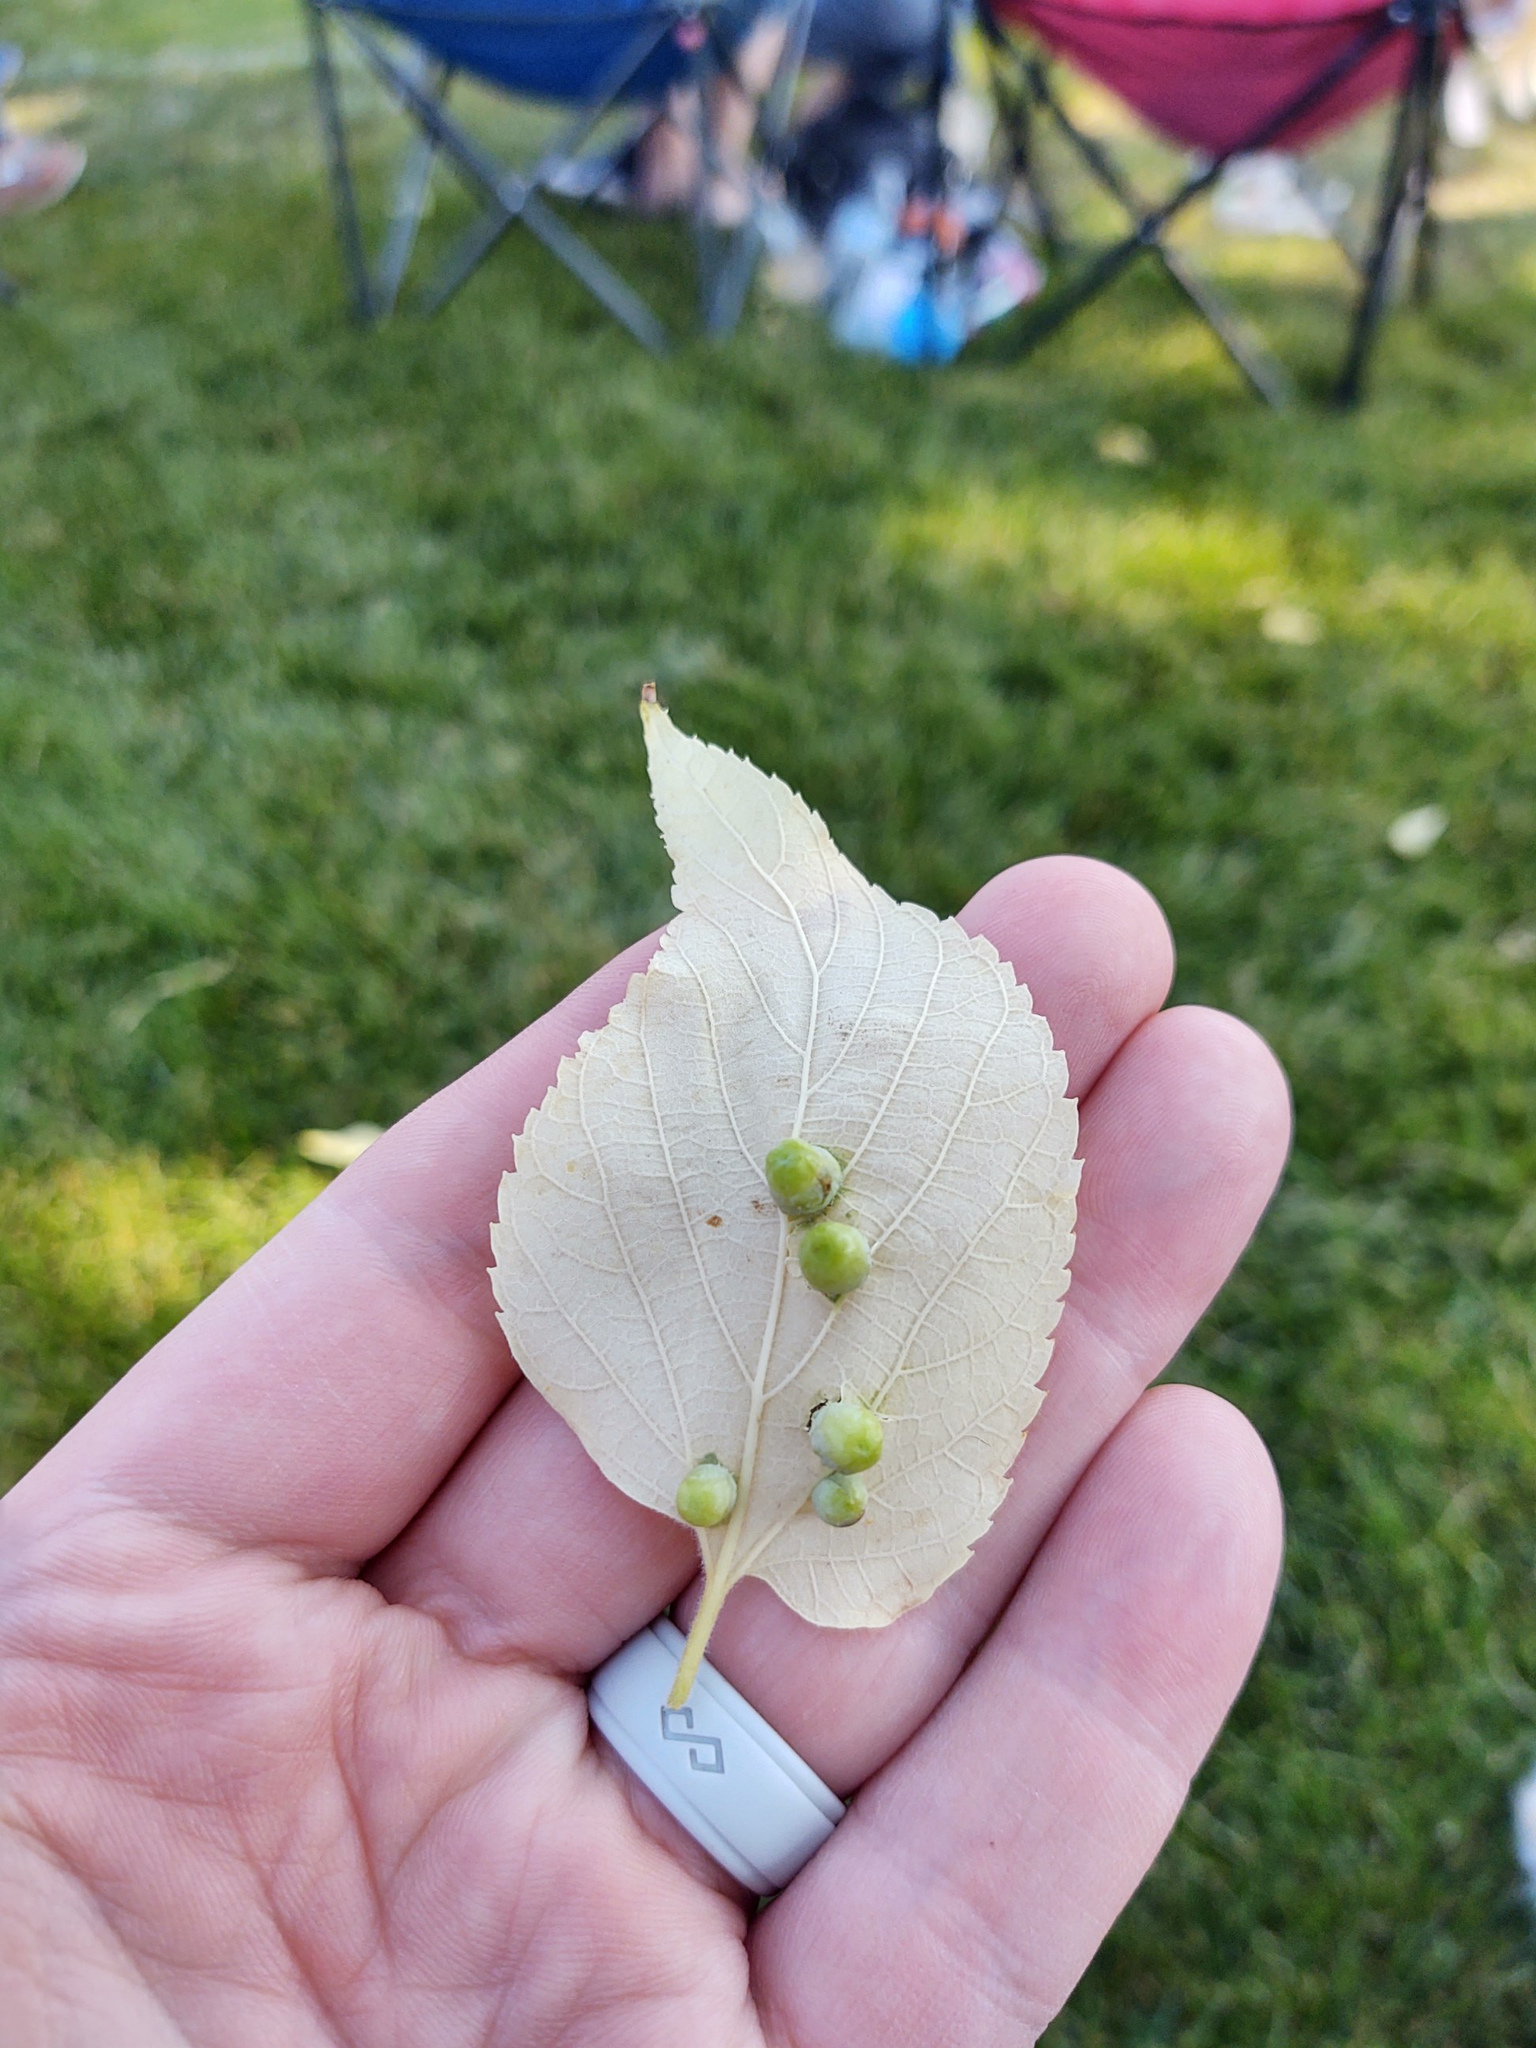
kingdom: Animalia
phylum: Arthropoda
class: Insecta
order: Hemiptera
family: Aphalaridae
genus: Pachypsylla
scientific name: Pachypsylla celtidismamma
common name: Hackberry nipplegall psyllid
